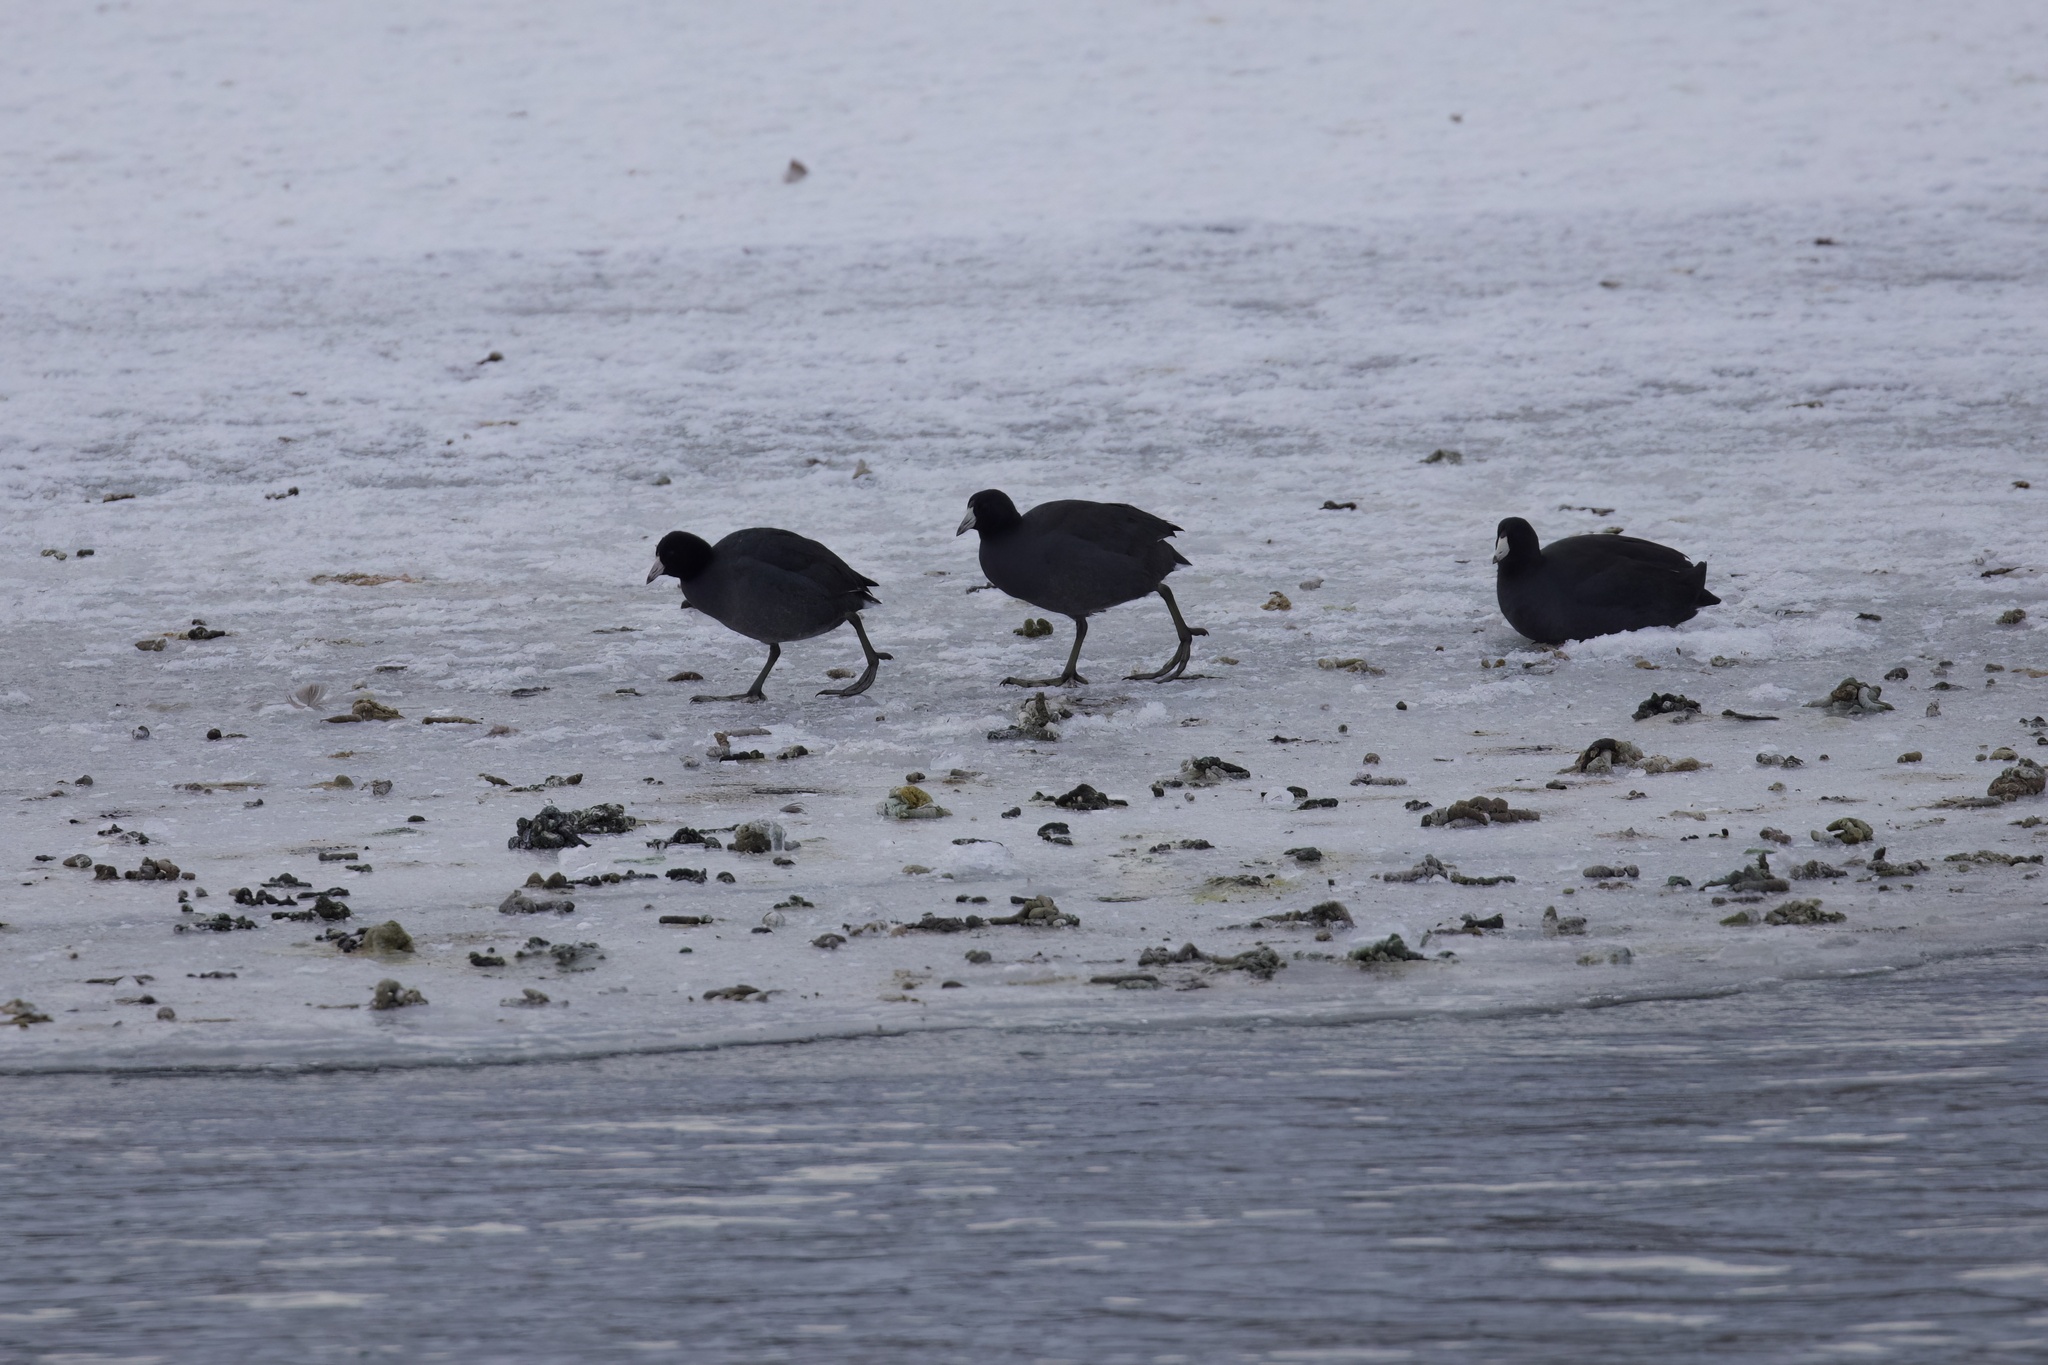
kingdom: Animalia
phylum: Chordata
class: Aves
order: Gruiformes
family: Rallidae
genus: Fulica
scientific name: Fulica americana
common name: American coot
